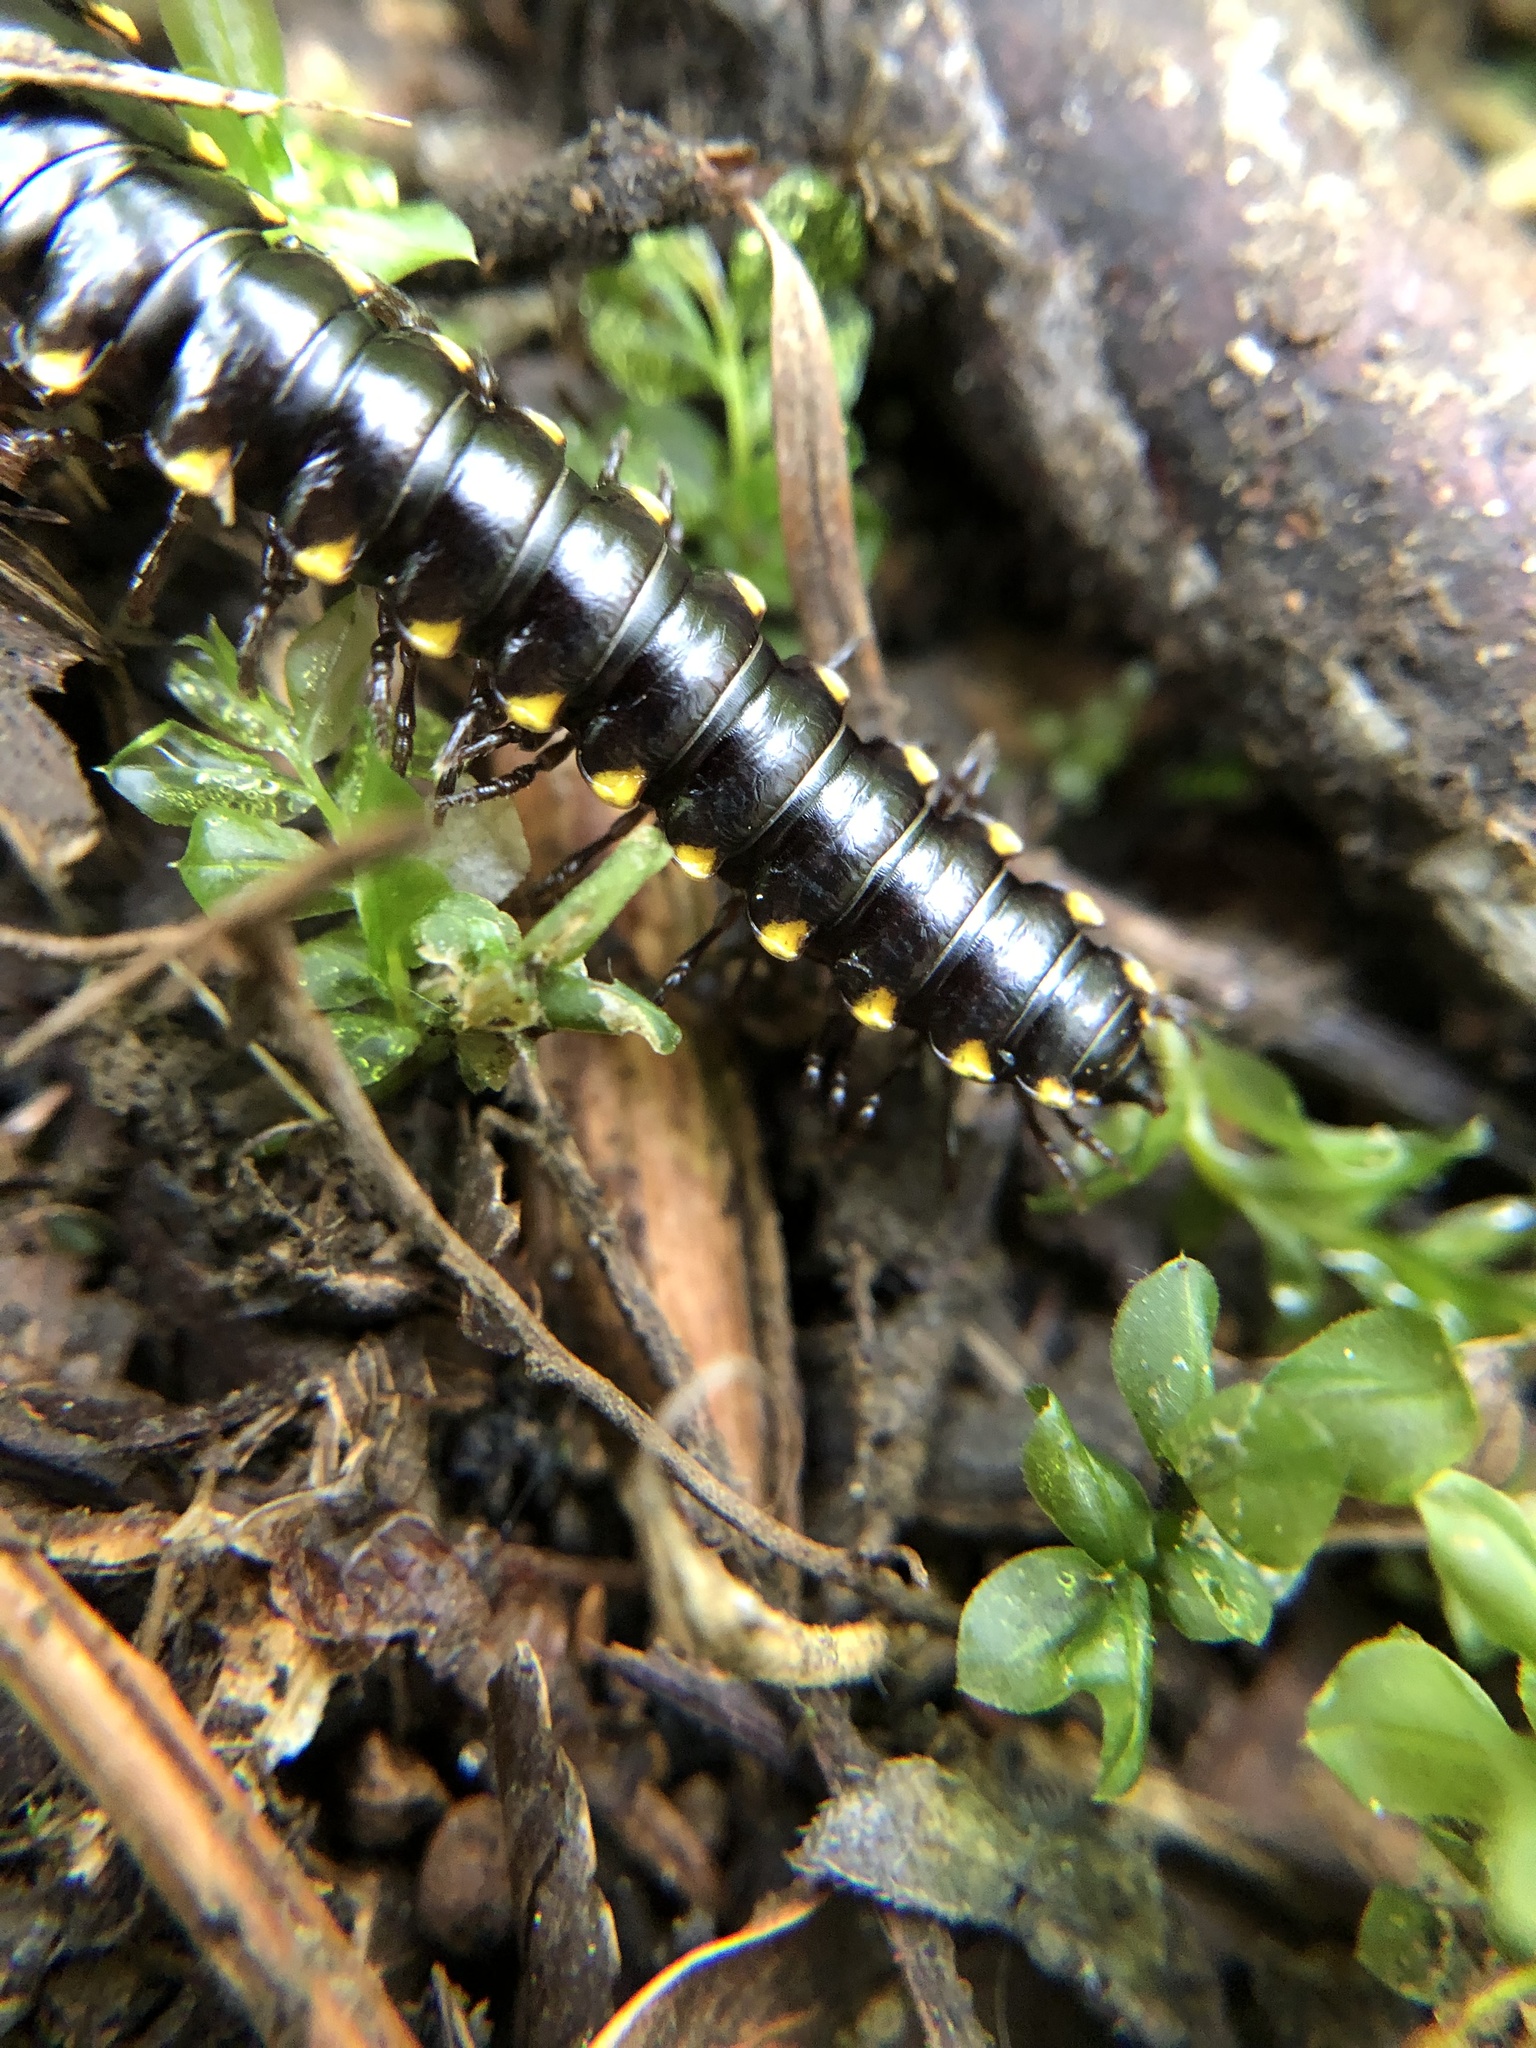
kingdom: Animalia
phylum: Arthropoda
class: Diplopoda
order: Polydesmida
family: Xystodesmidae
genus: Harpaphe
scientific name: Harpaphe haydeniana
